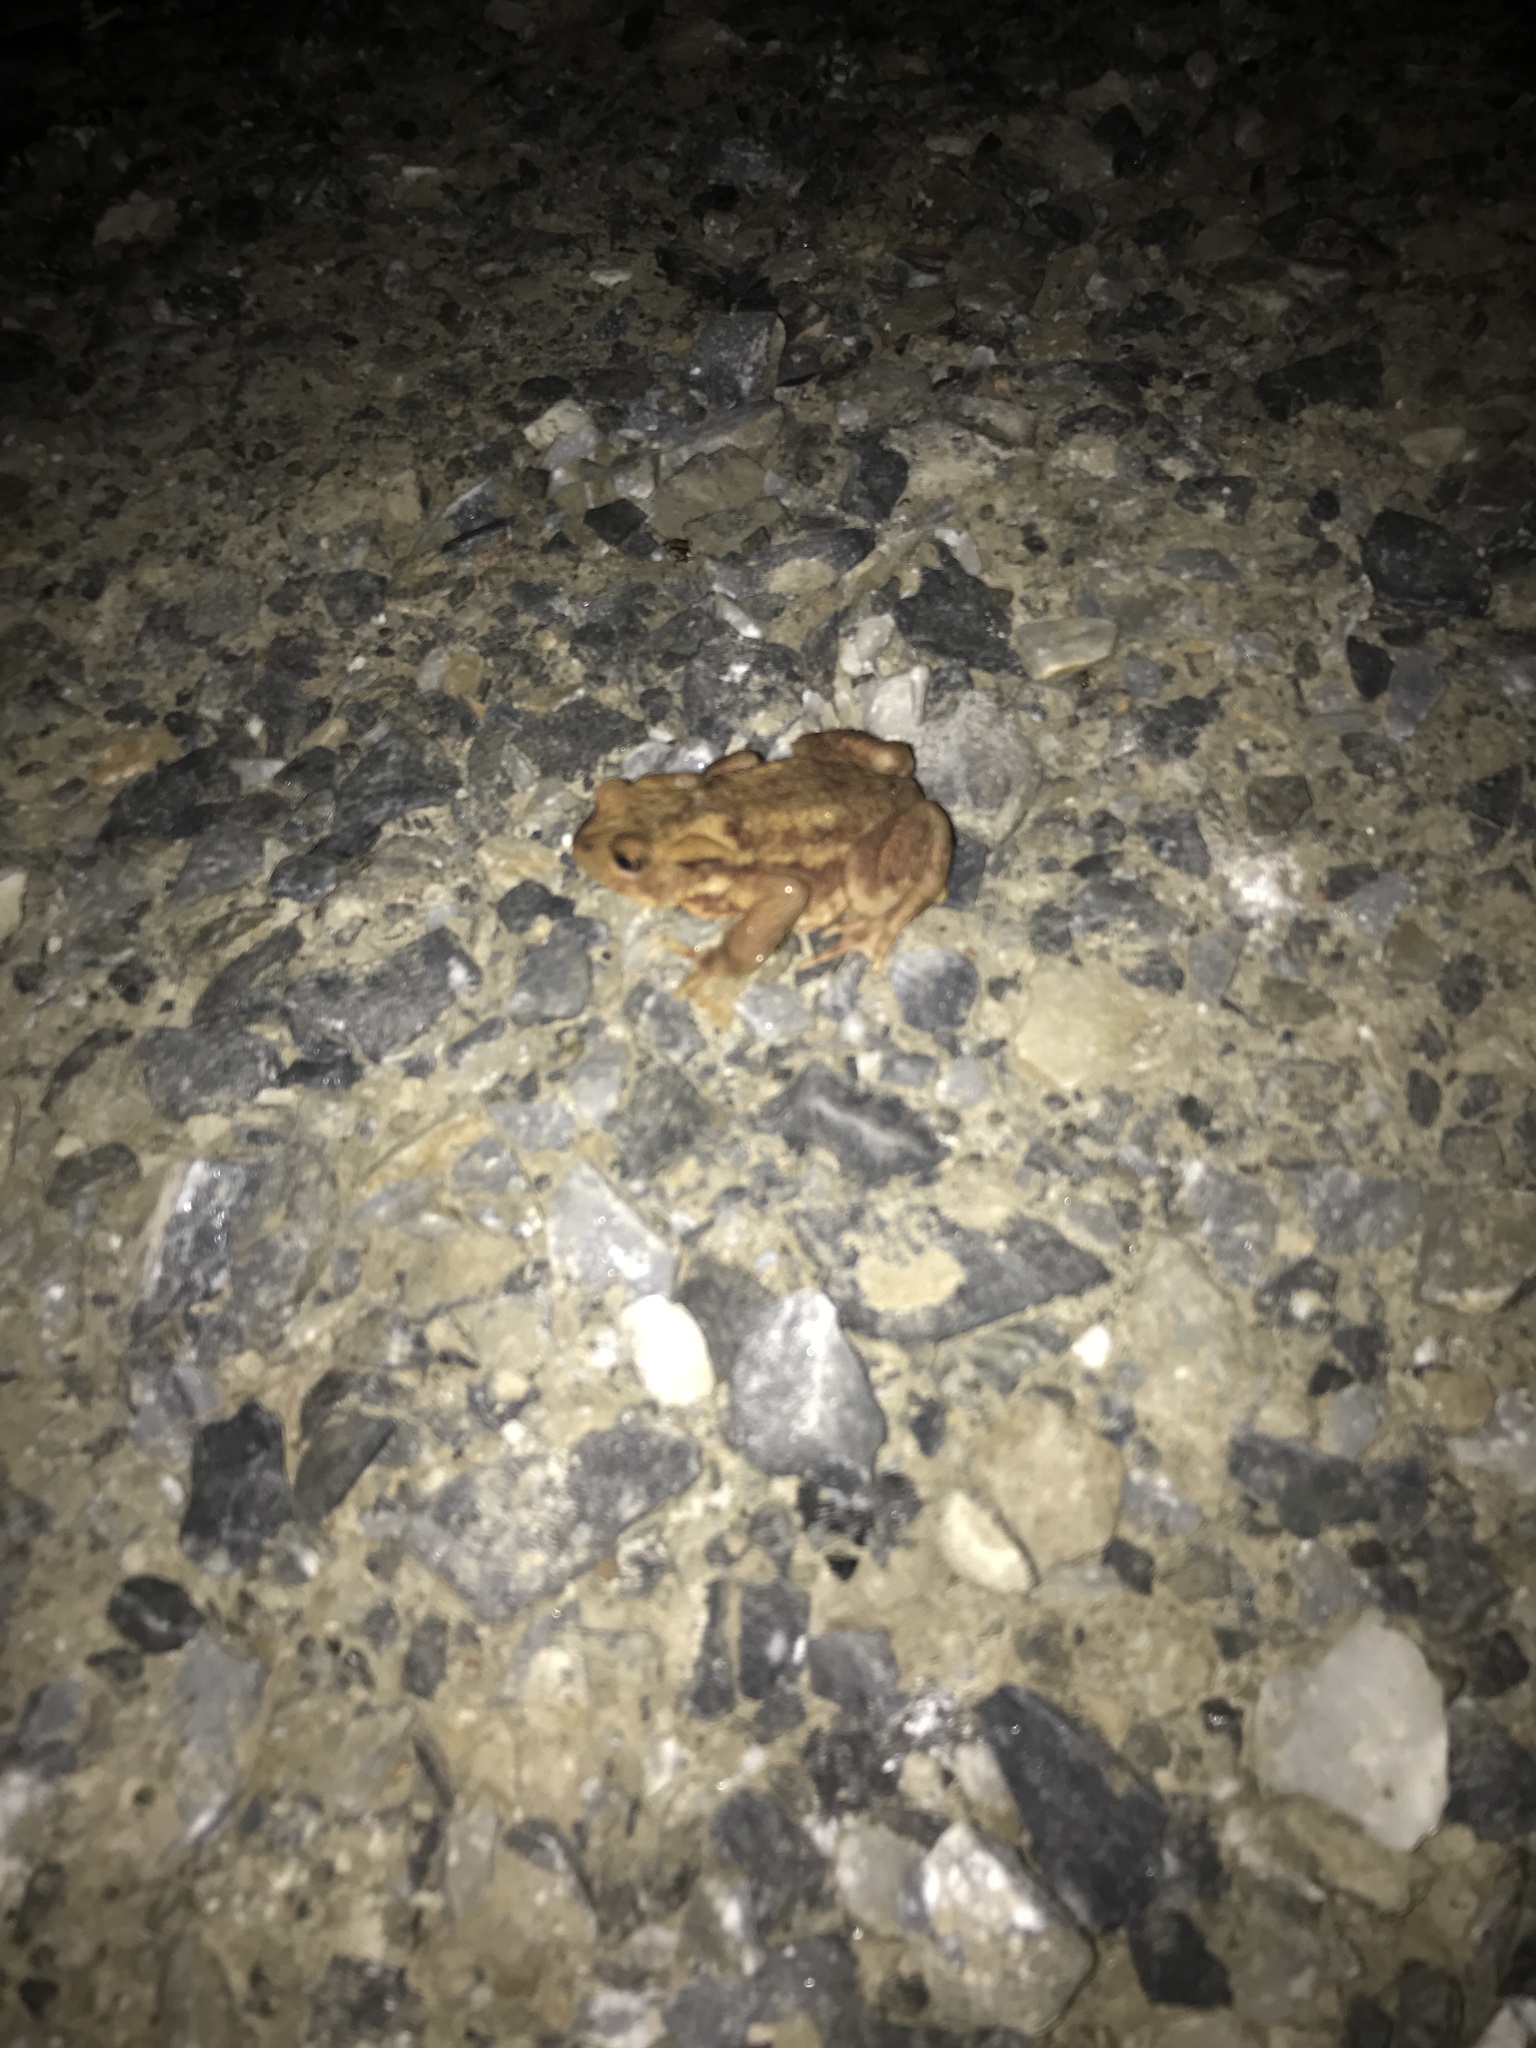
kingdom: Animalia
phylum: Chordata
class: Amphibia
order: Anura
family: Bufonidae
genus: Bufo
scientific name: Bufo bufo
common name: Common toad
